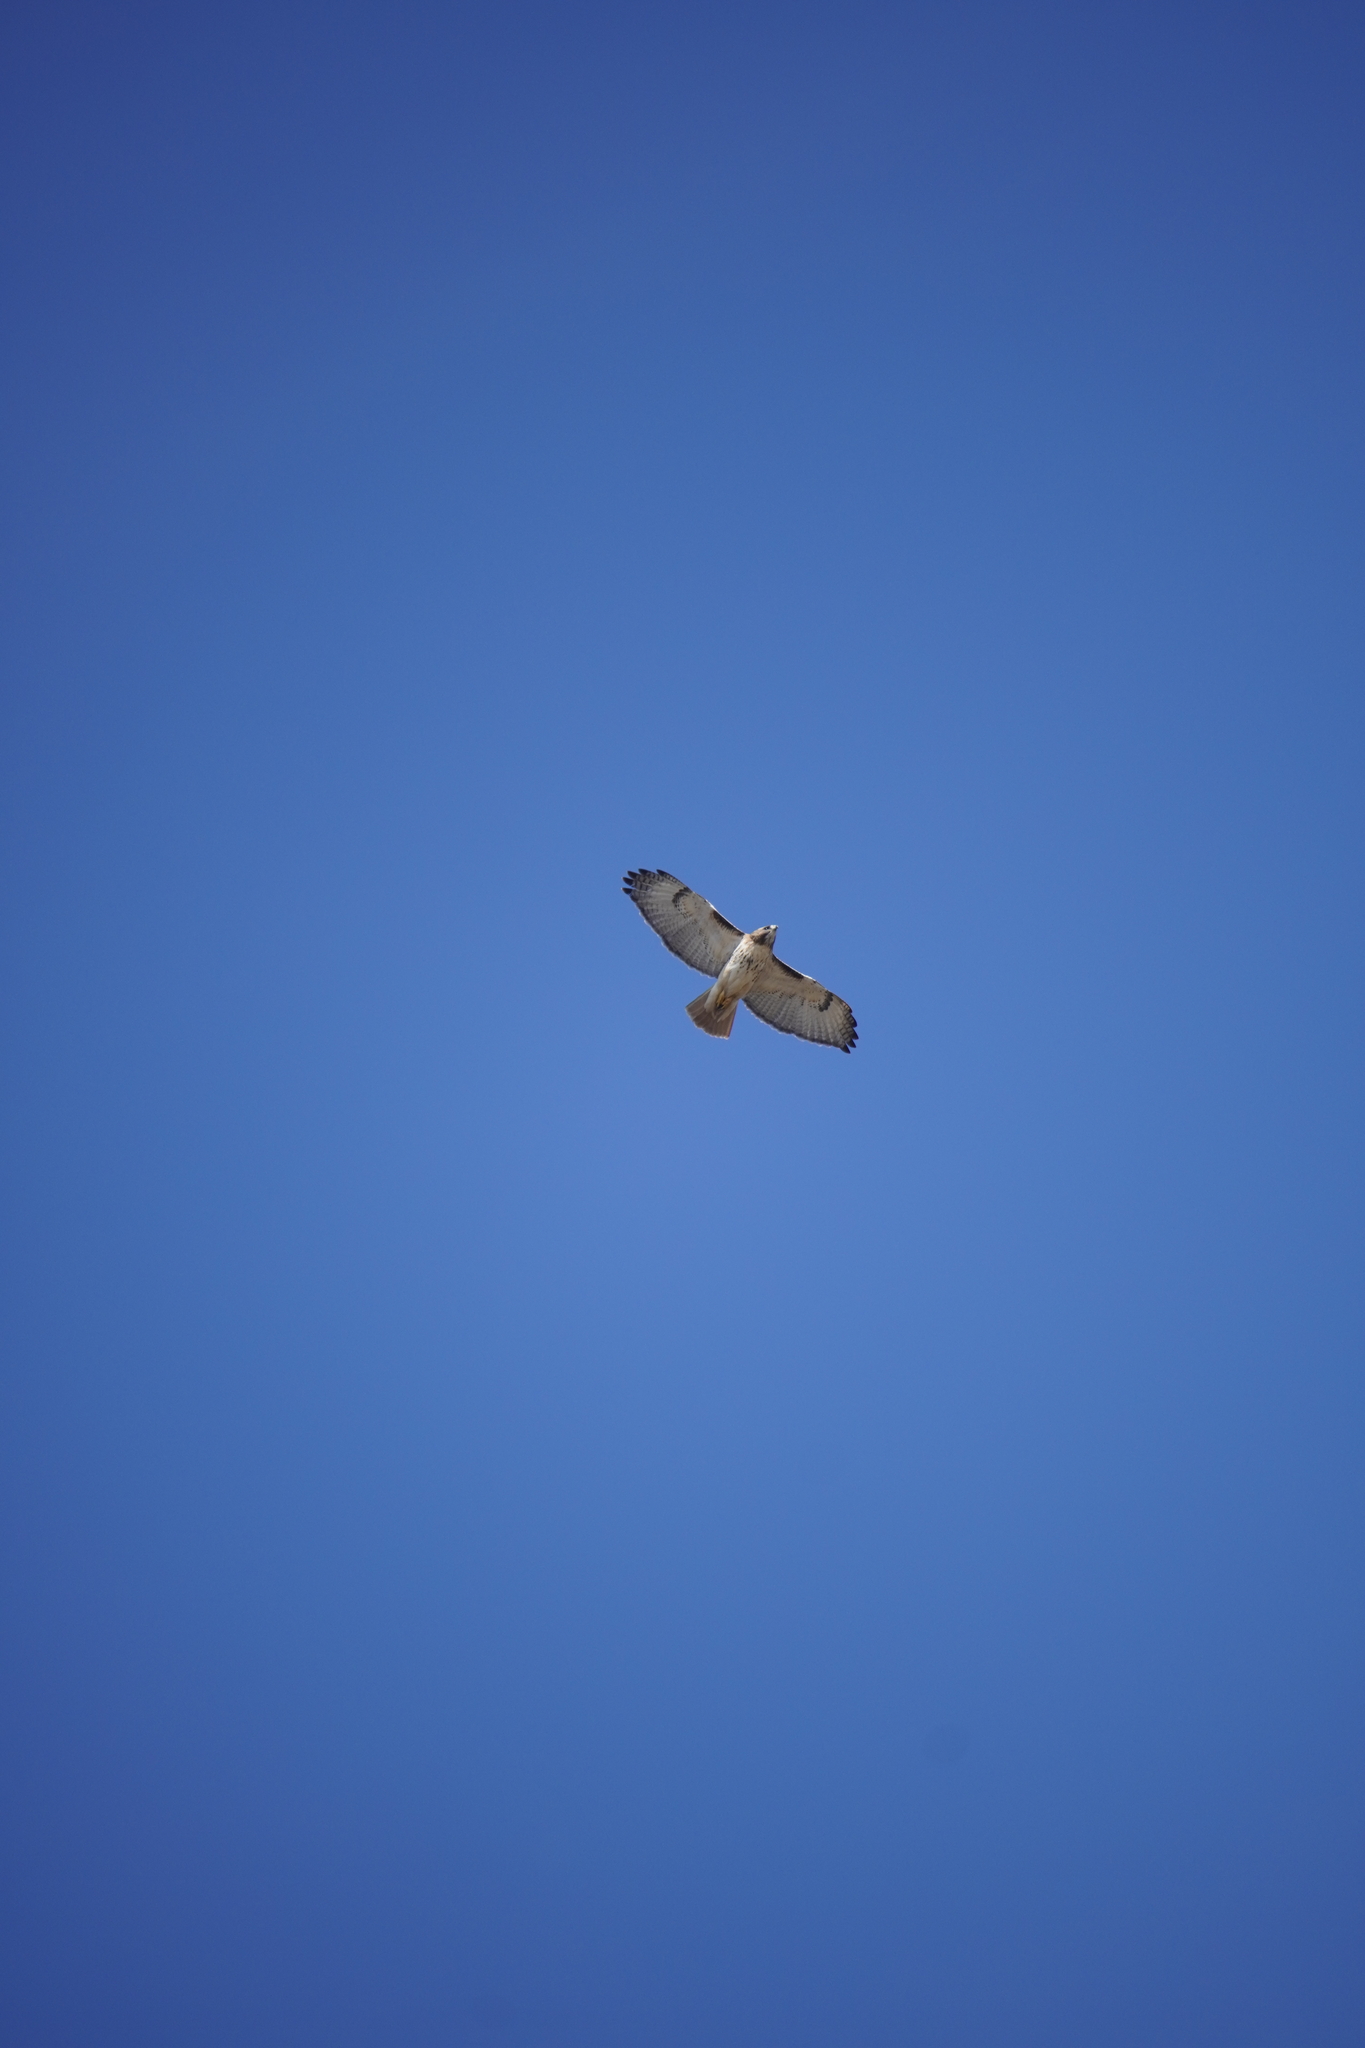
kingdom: Animalia
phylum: Chordata
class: Aves
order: Accipitriformes
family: Accipitridae
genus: Buteo
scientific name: Buteo jamaicensis
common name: Red-tailed hawk
